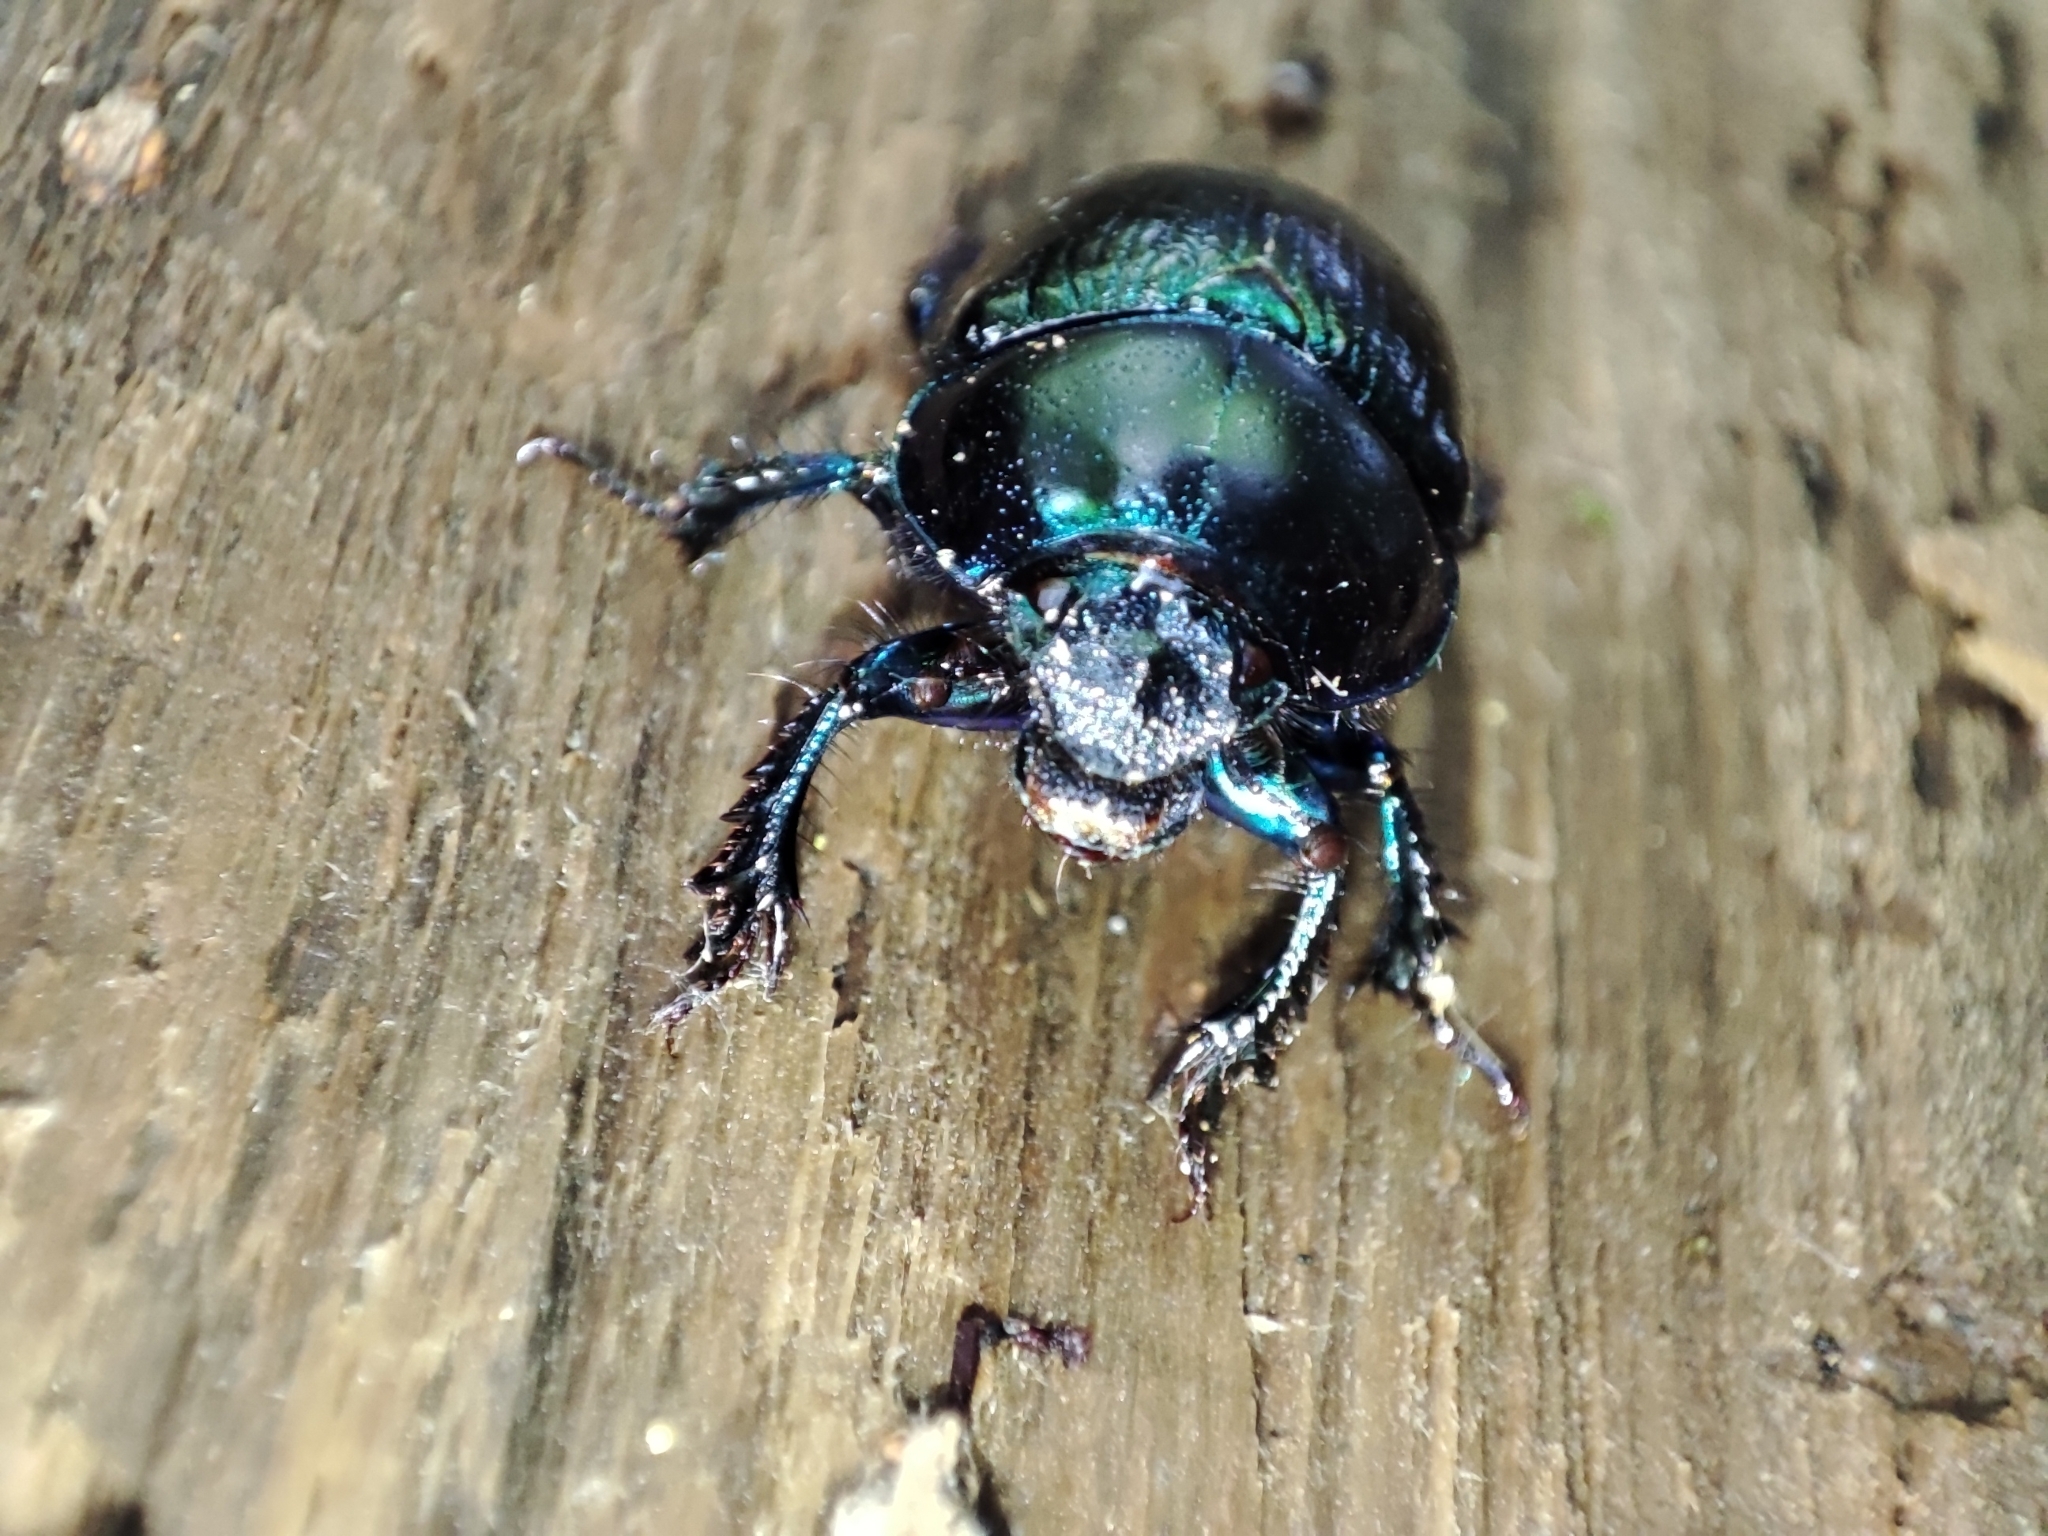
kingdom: Animalia
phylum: Arthropoda
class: Insecta
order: Coleoptera
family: Geotrupidae
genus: Anoplotrupes
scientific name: Anoplotrupes stercorosus
